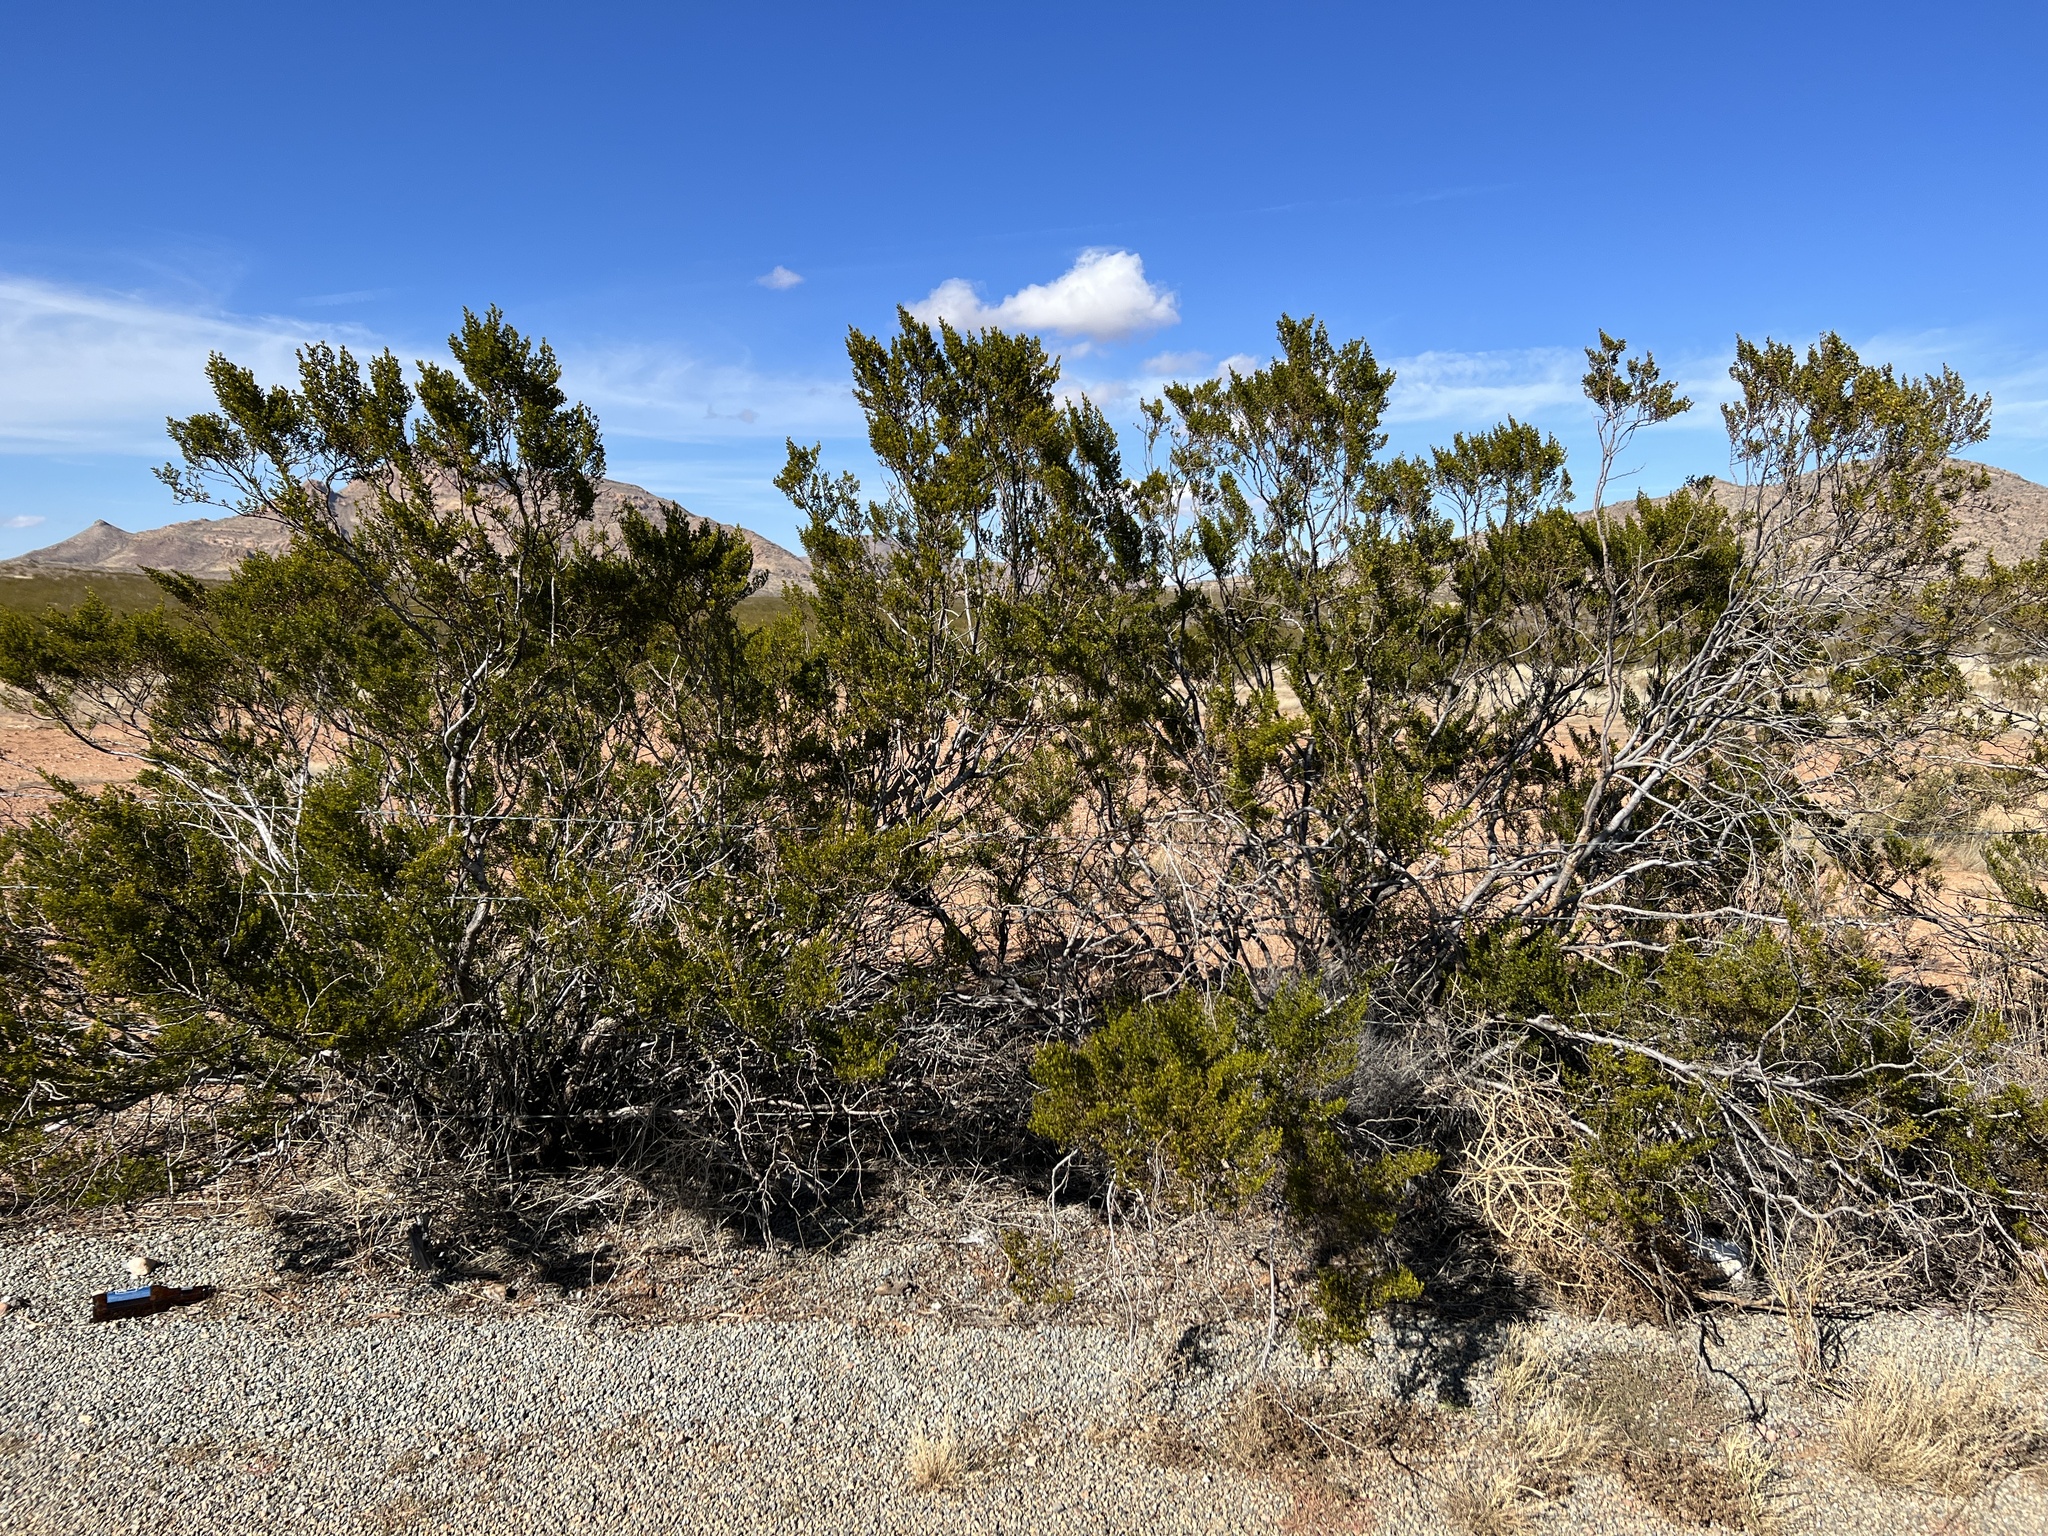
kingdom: Plantae
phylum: Tracheophyta
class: Magnoliopsida
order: Zygophyllales
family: Zygophyllaceae
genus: Larrea
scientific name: Larrea tridentata
